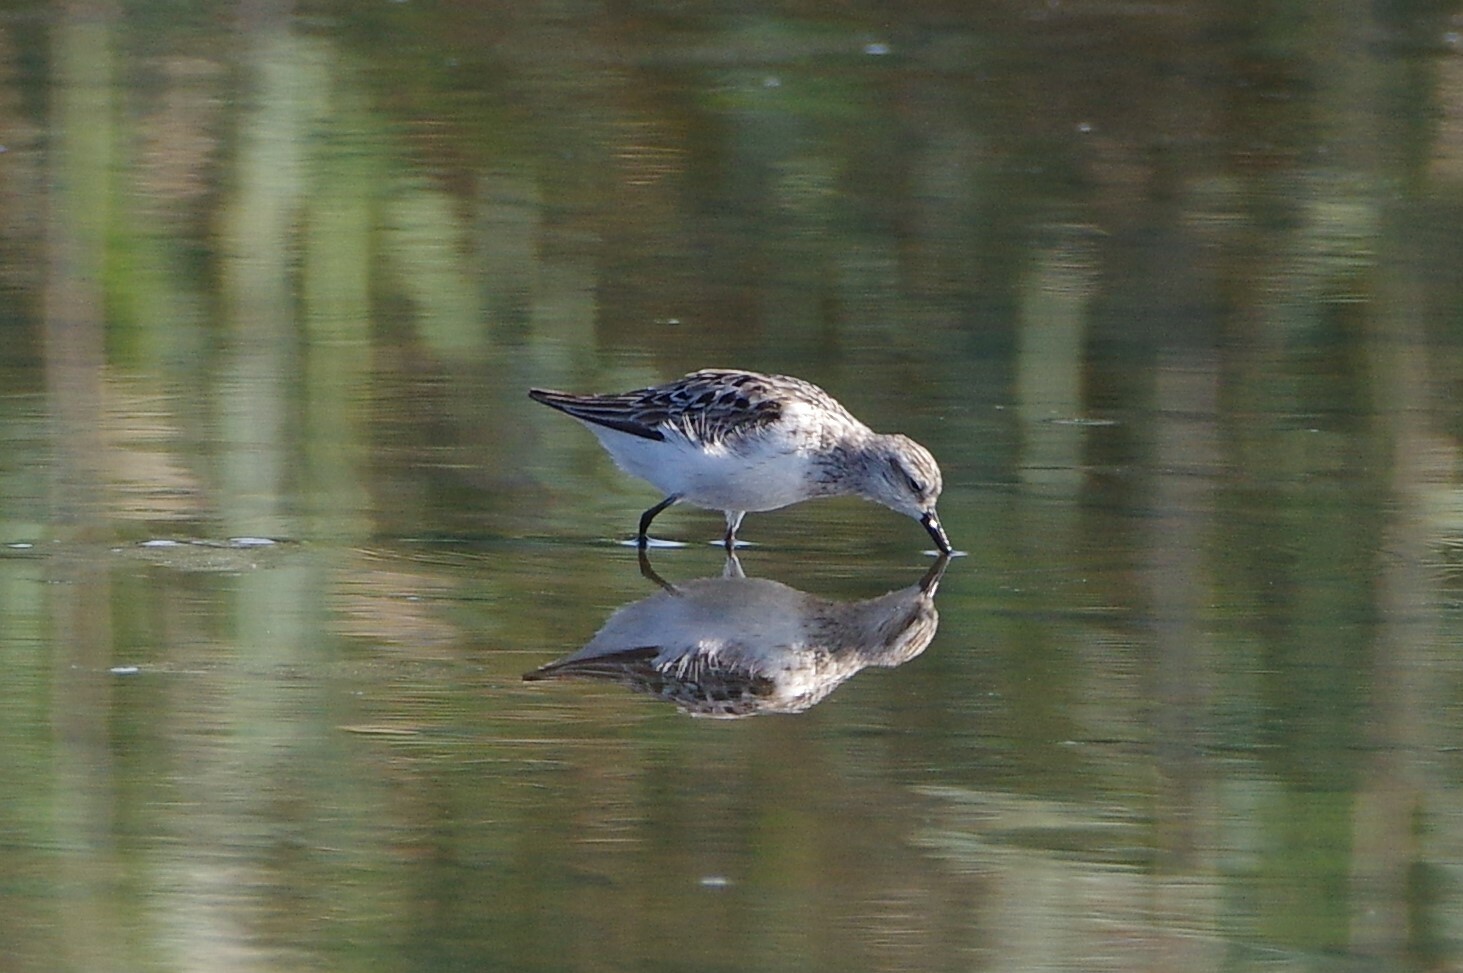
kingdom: Animalia
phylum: Chordata
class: Aves
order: Charadriiformes
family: Scolopacidae
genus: Calidris
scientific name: Calidris pusilla
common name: Semipalmated sandpiper
